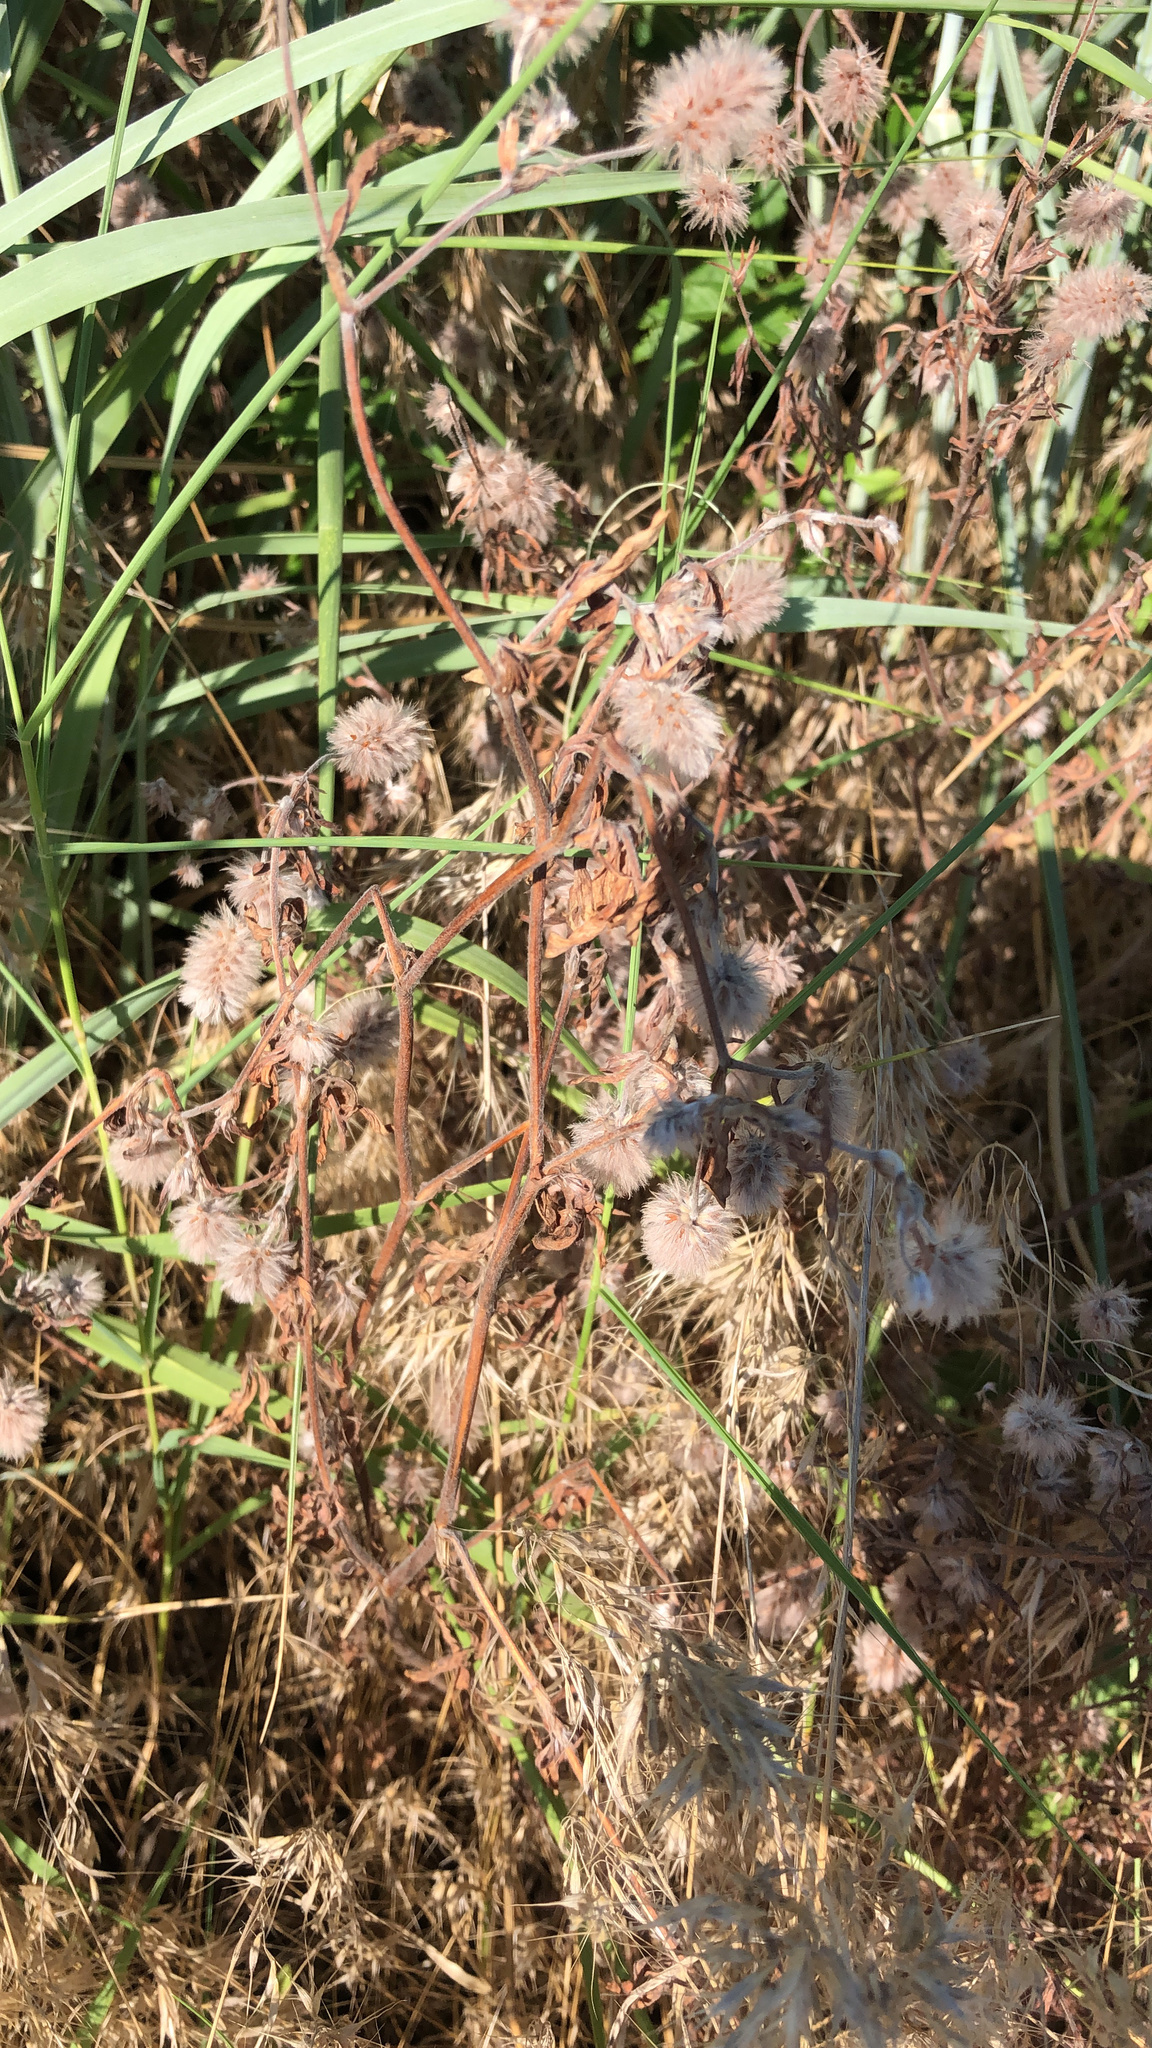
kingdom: Plantae
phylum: Tracheophyta
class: Magnoliopsida
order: Fabales
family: Fabaceae
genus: Trifolium
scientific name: Trifolium arvense
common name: Hare's-foot clover
